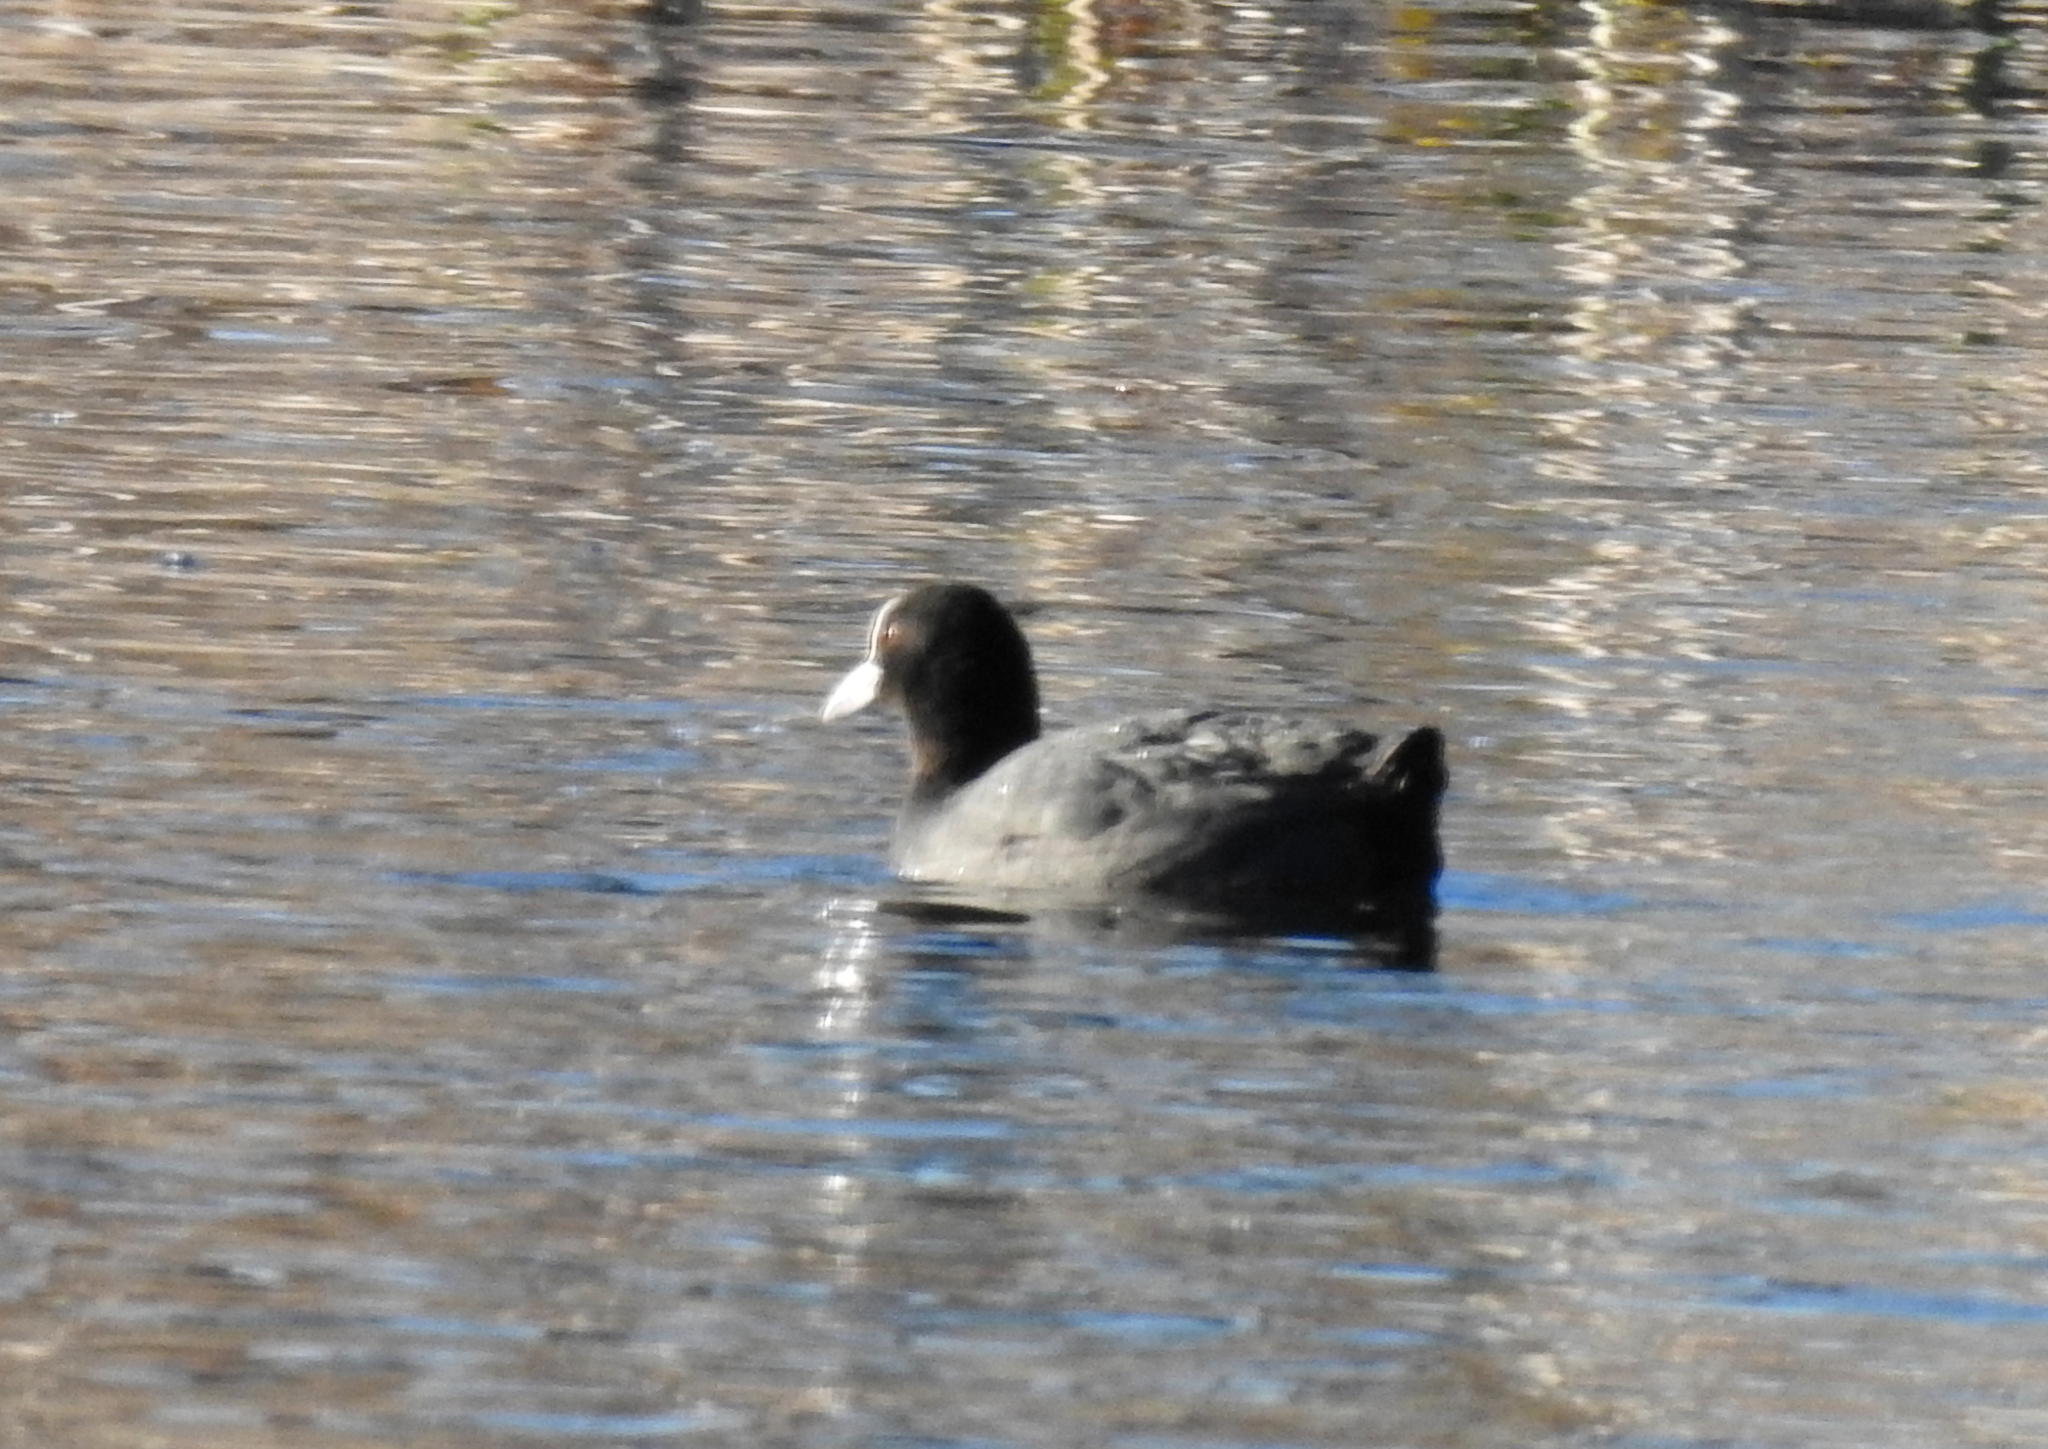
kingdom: Animalia
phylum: Chordata
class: Aves
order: Gruiformes
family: Rallidae
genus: Fulica
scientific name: Fulica atra
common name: Eurasian coot
